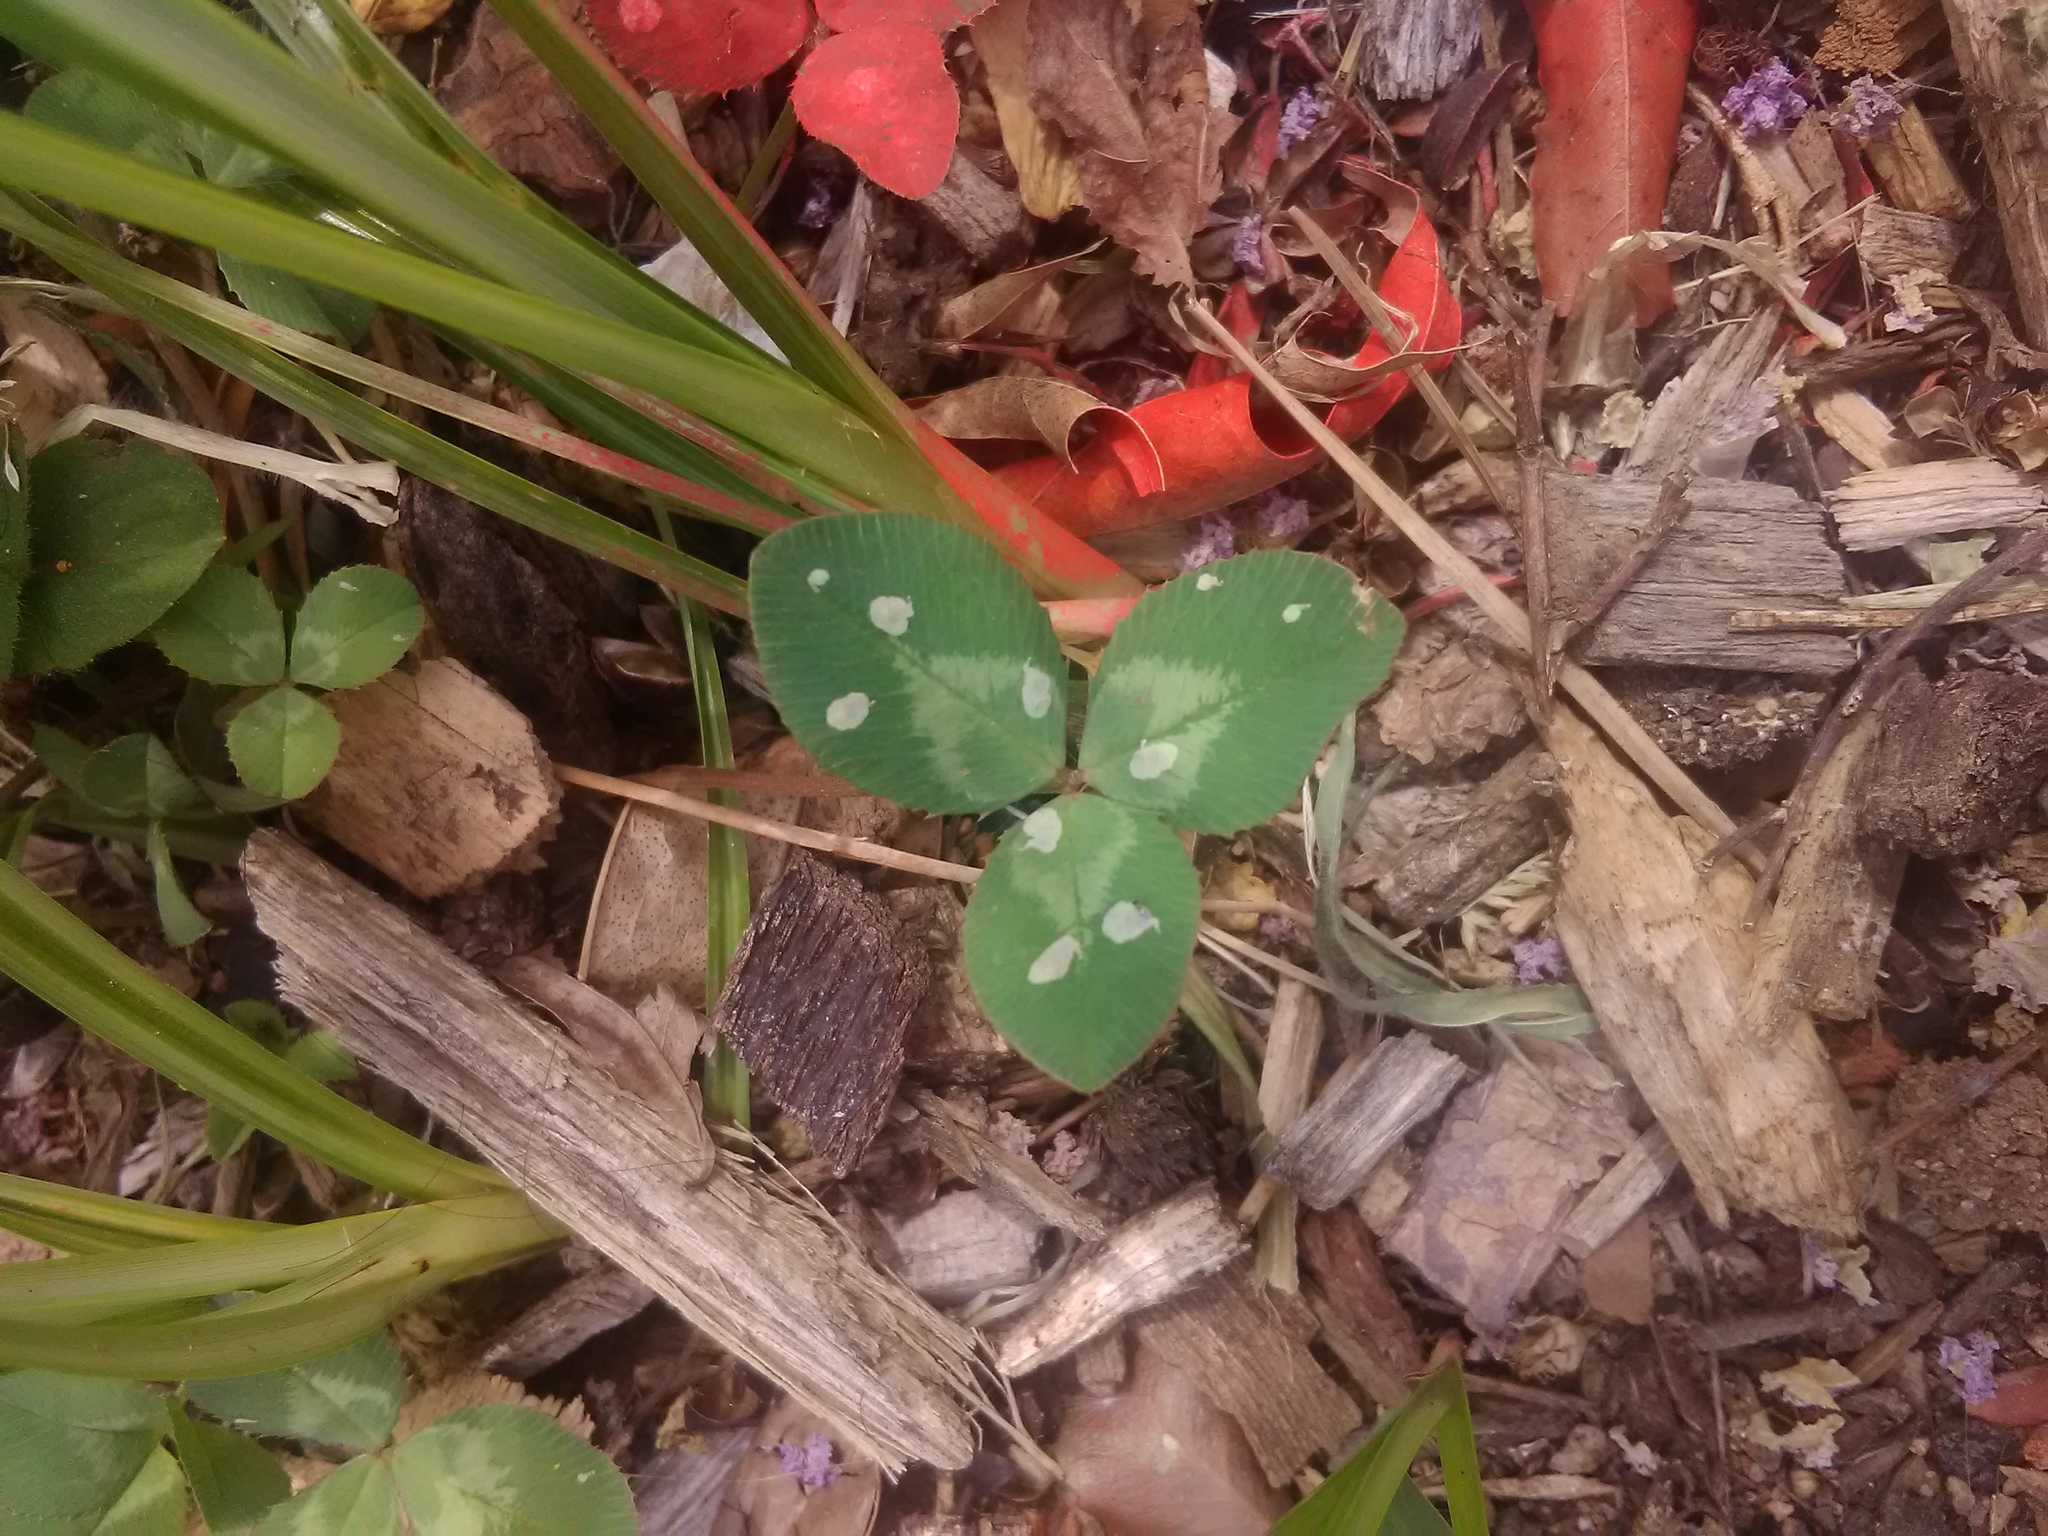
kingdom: Plantae
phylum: Tracheophyta
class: Magnoliopsida
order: Fabales
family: Fabaceae
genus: Trifolium
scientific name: Trifolium repens
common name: White clover
